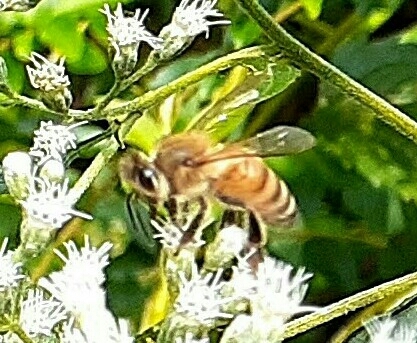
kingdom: Animalia
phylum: Arthropoda
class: Insecta
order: Hymenoptera
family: Apidae
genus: Apis
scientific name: Apis mellifera
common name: Honey bee
